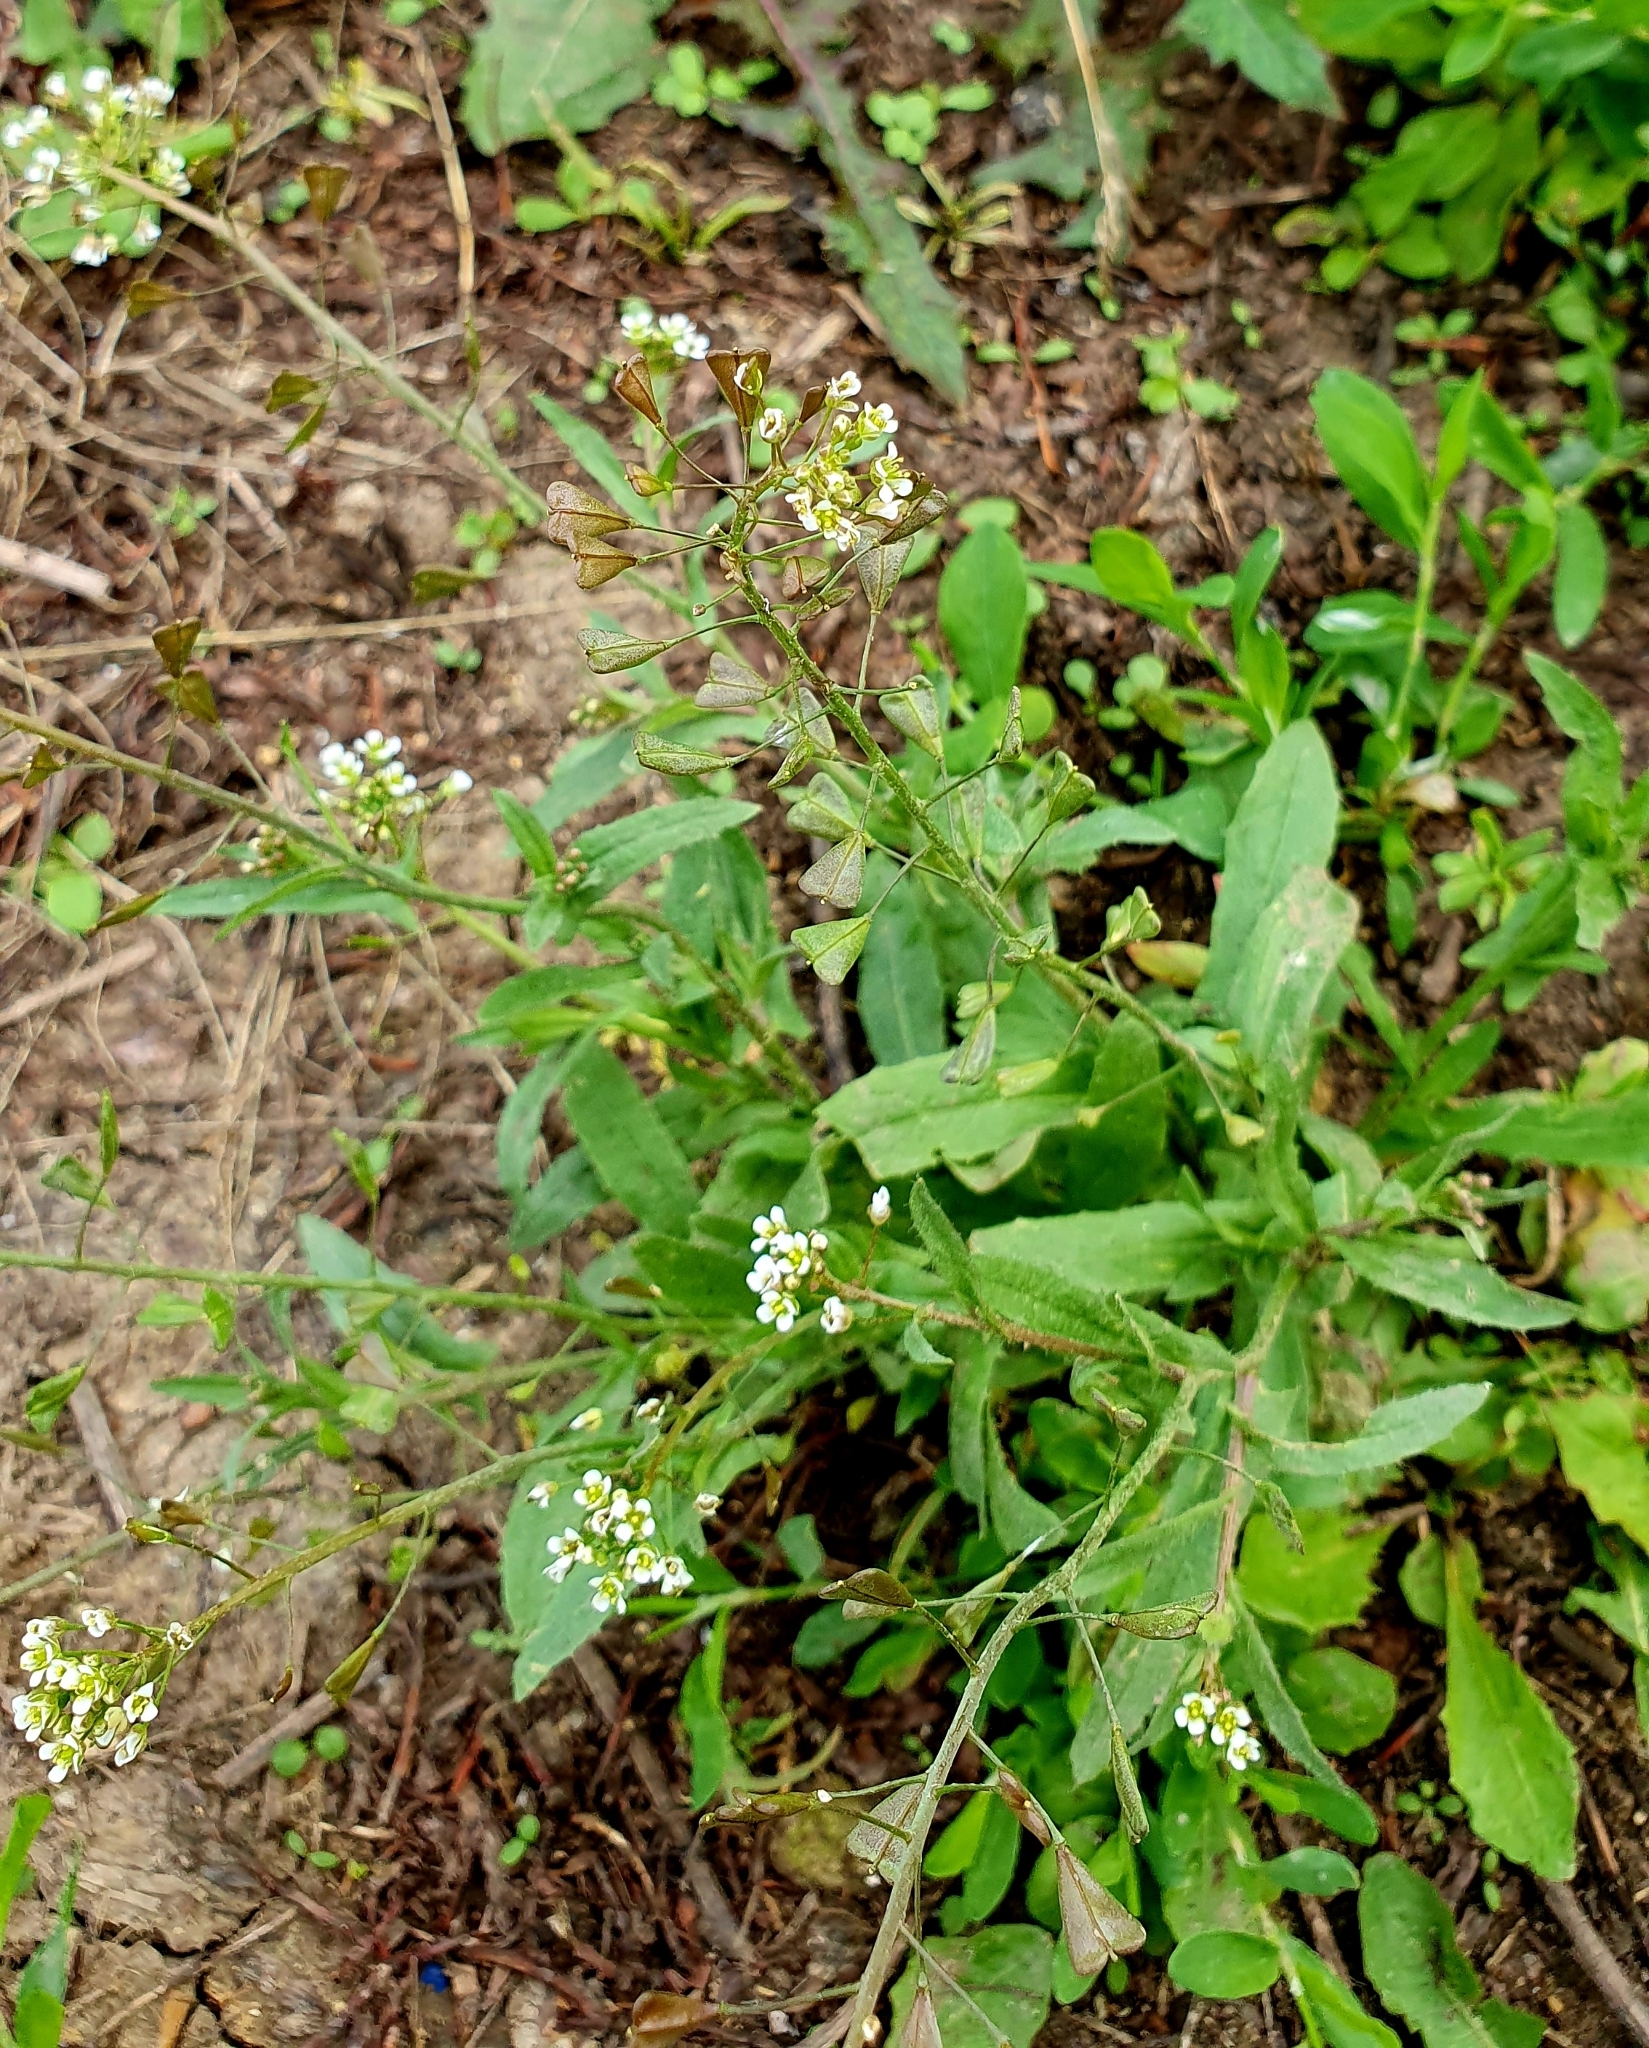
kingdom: Plantae
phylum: Tracheophyta
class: Magnoliopsida
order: Brassicales
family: Brassicaceae
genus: Capsella
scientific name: Capsella bursa-pastoris
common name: Shepherd's purse
